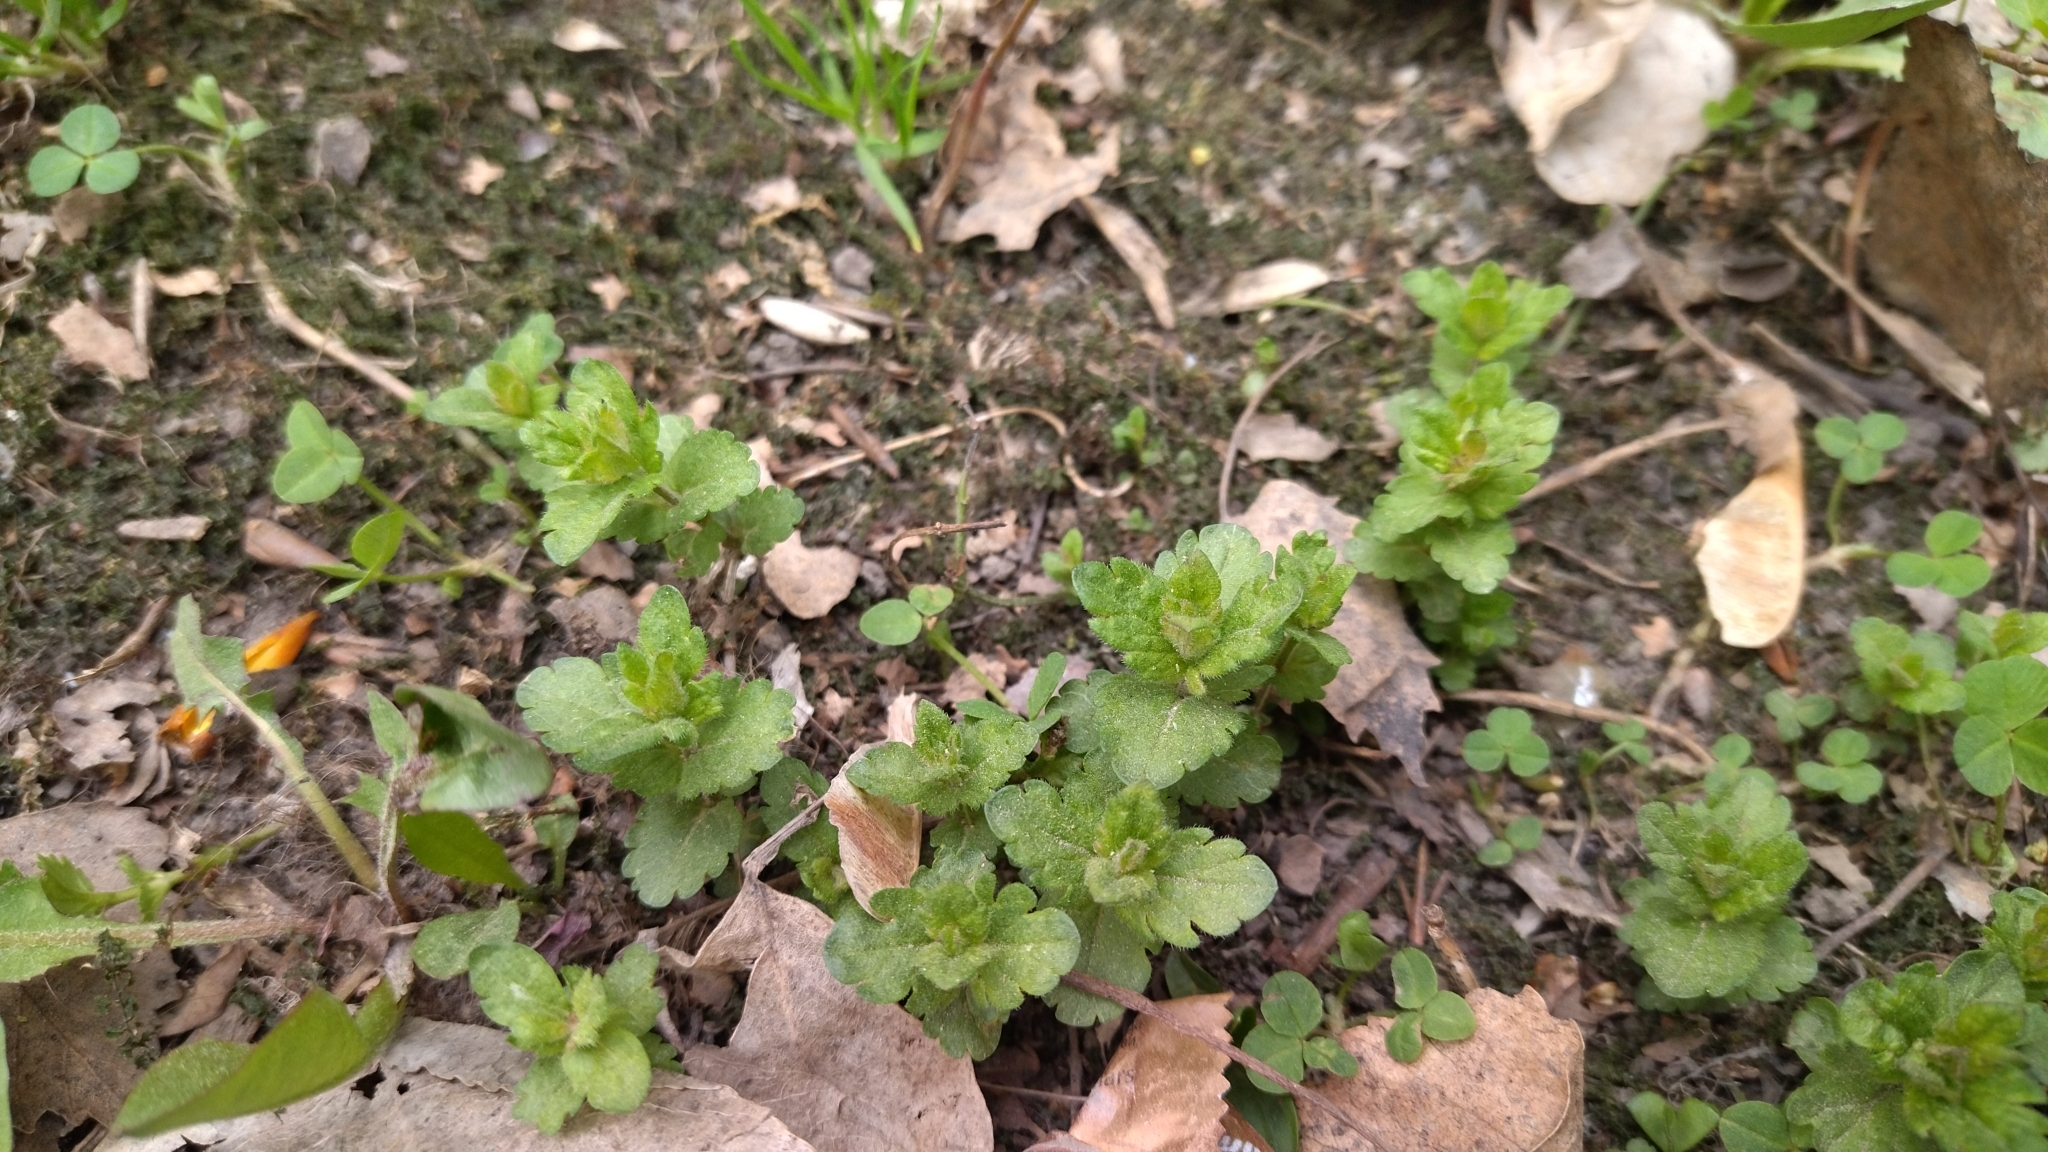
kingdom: Plantae
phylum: Tracheophyta
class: Magnoliopsida
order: Lamiales
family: Plantaginaceae
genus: Veronica
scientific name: Veronica chamaedrys
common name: Germander speedwell
